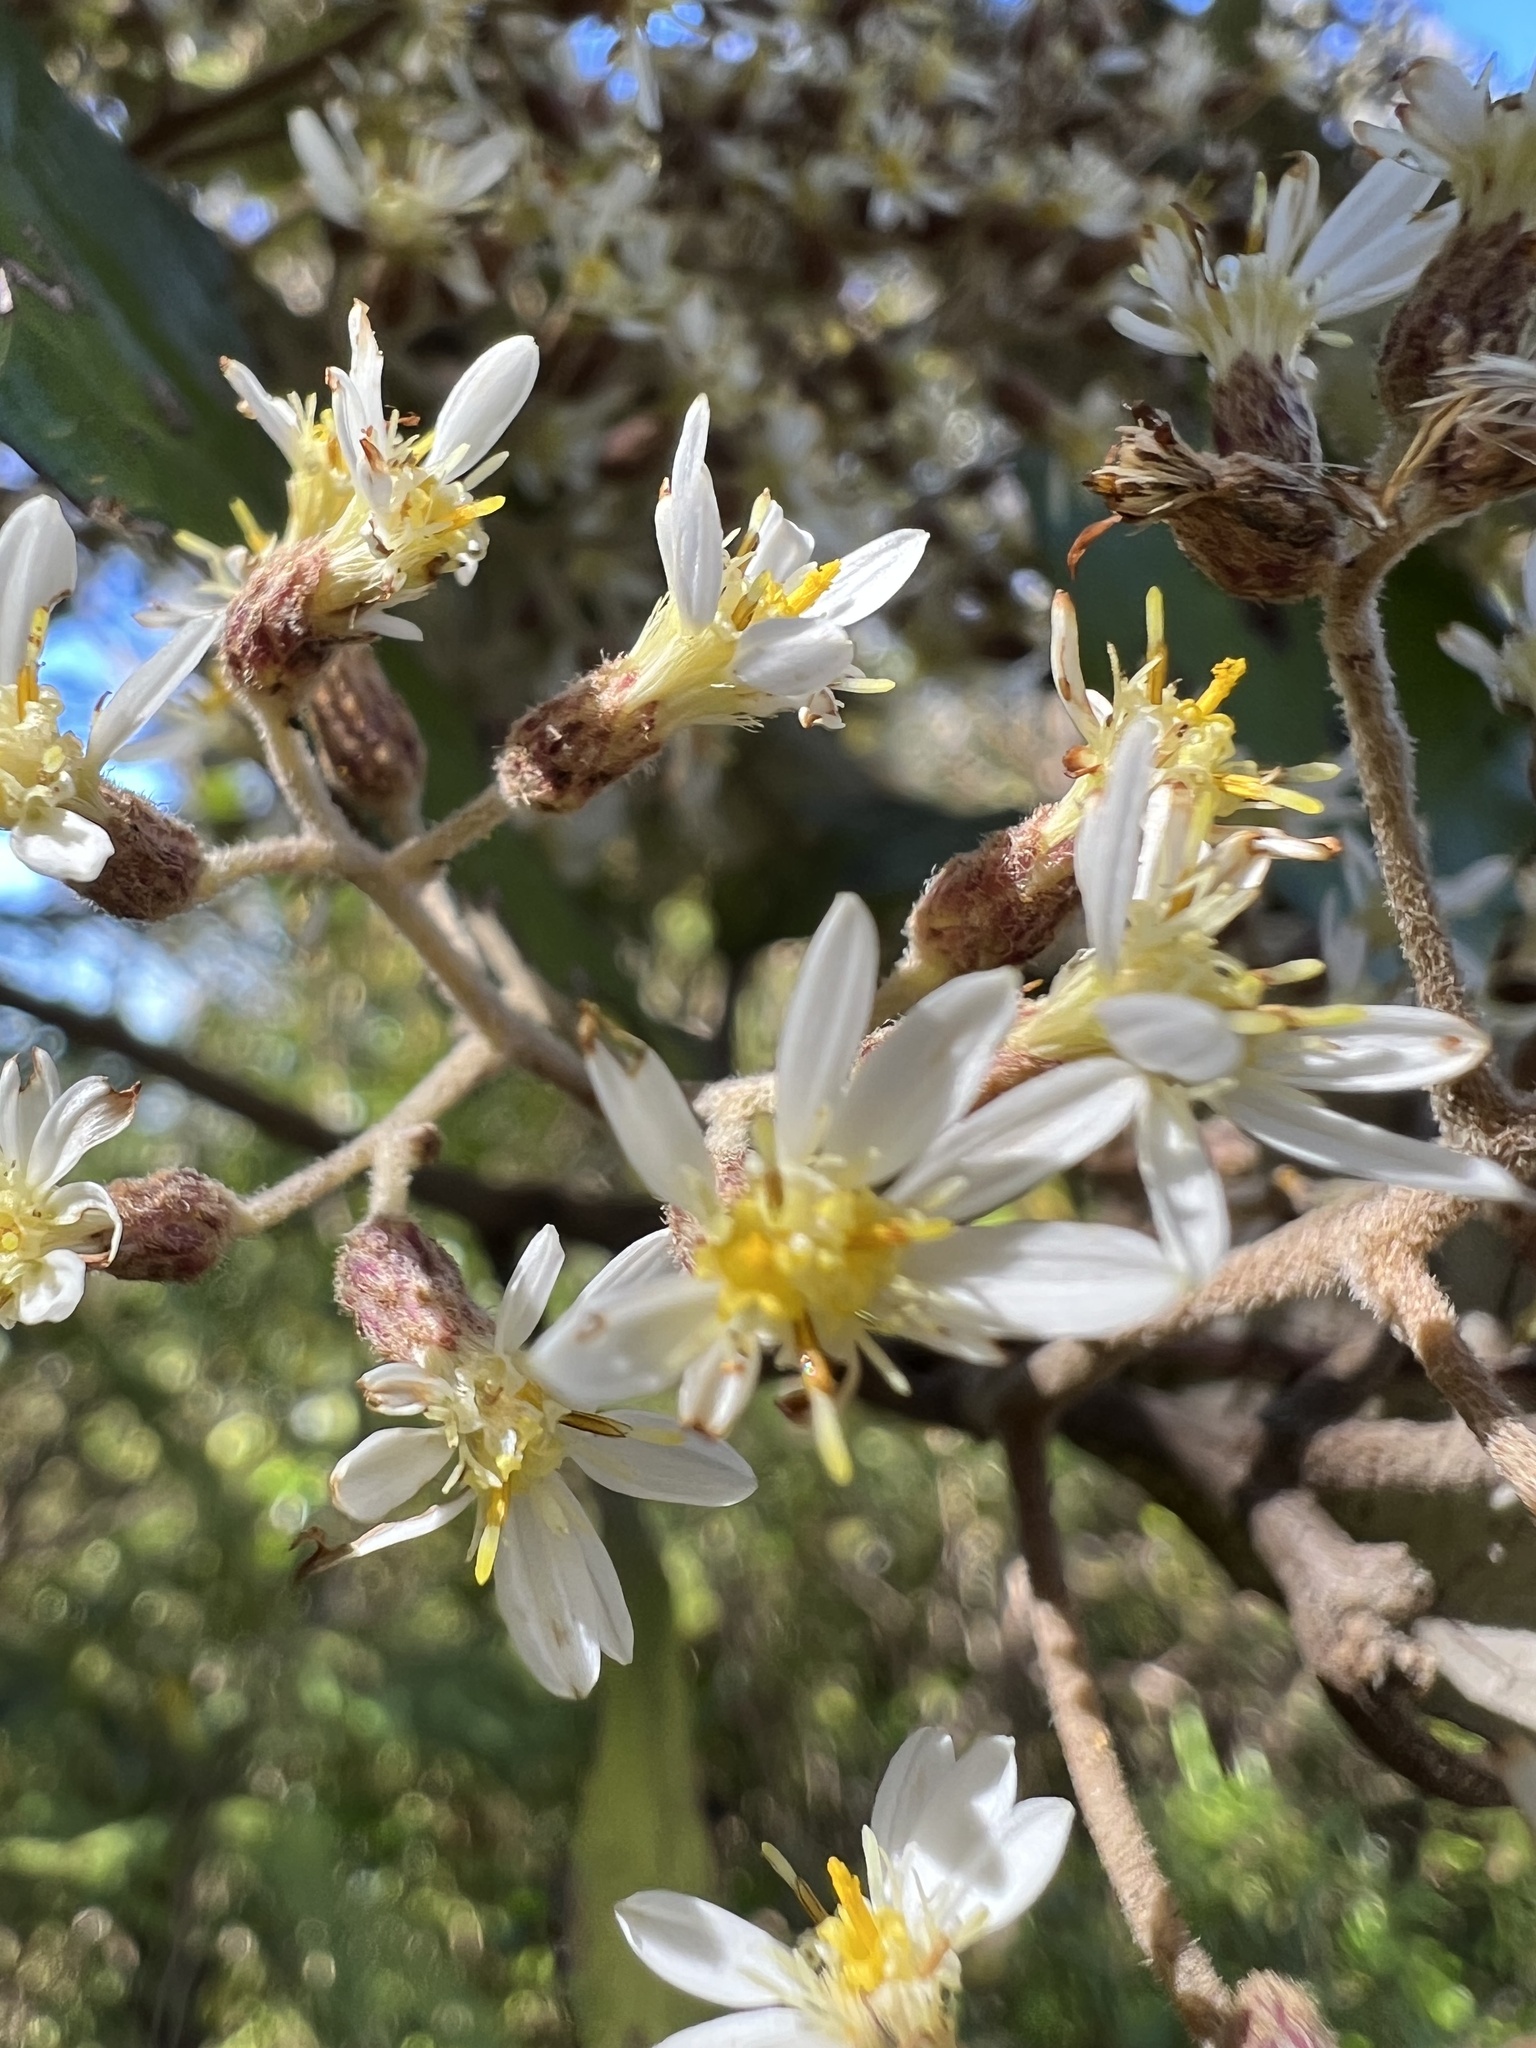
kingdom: Plantae
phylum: Tracheophyta
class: Magnoliopsida
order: Asterales
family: Asteraceae
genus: Olearia
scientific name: Olearia rani
